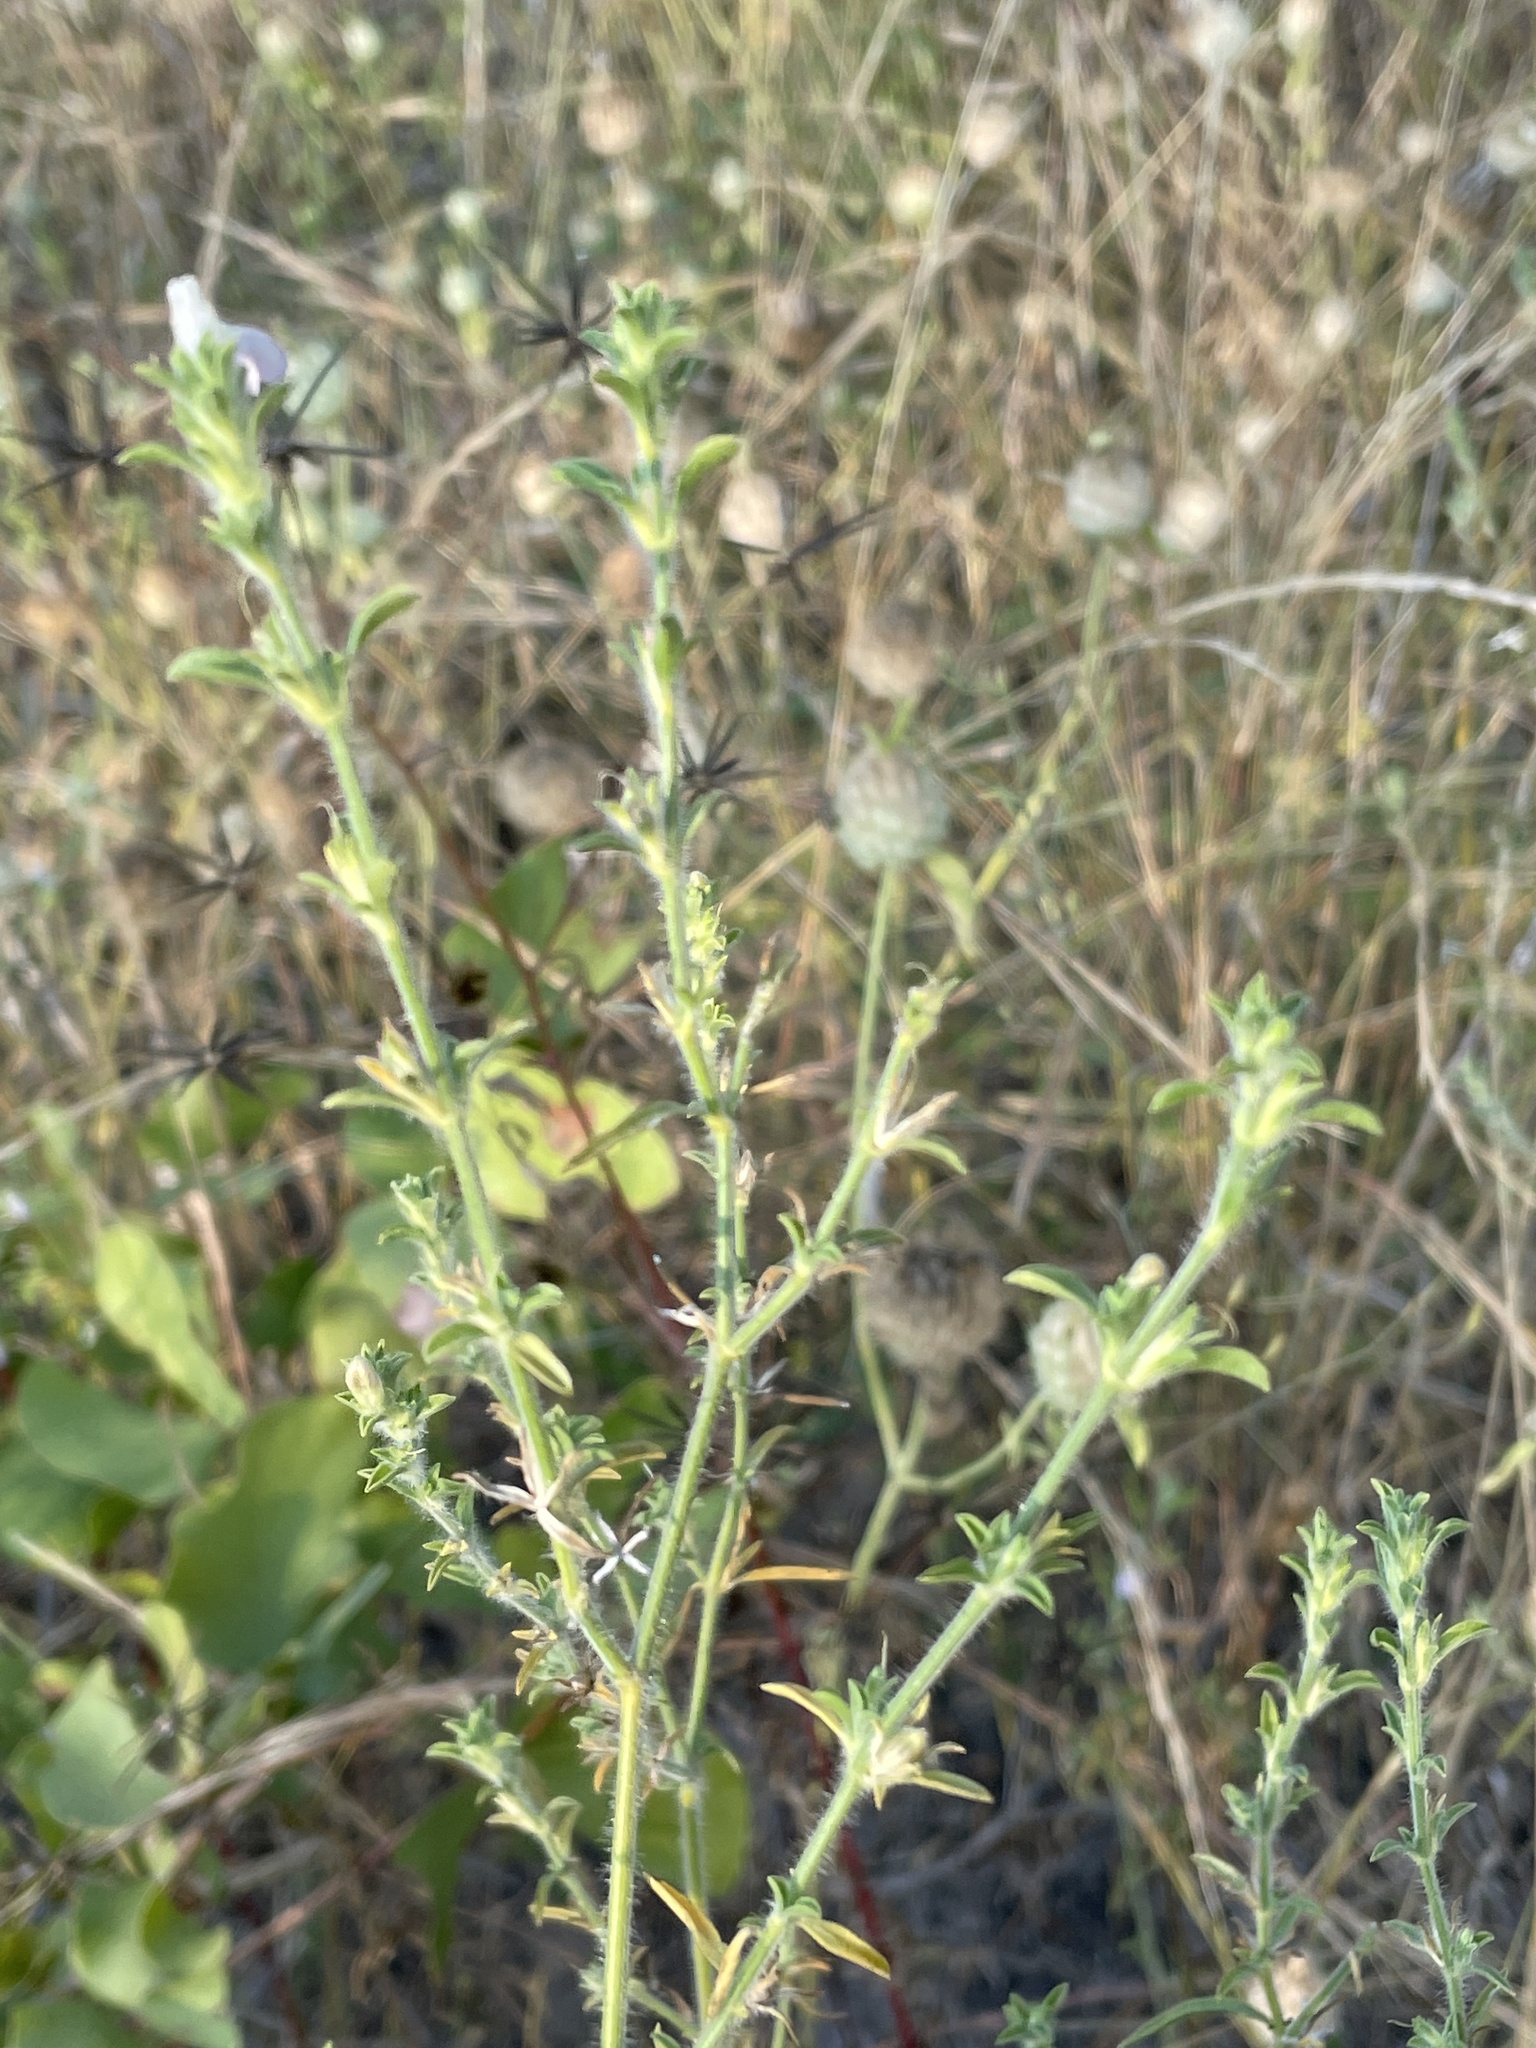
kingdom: Plantae
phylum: Tracheophyta
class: Magnoliopsida
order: Lamiales
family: Acanthaceae
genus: Pogonospermum
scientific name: Pogonospermum
